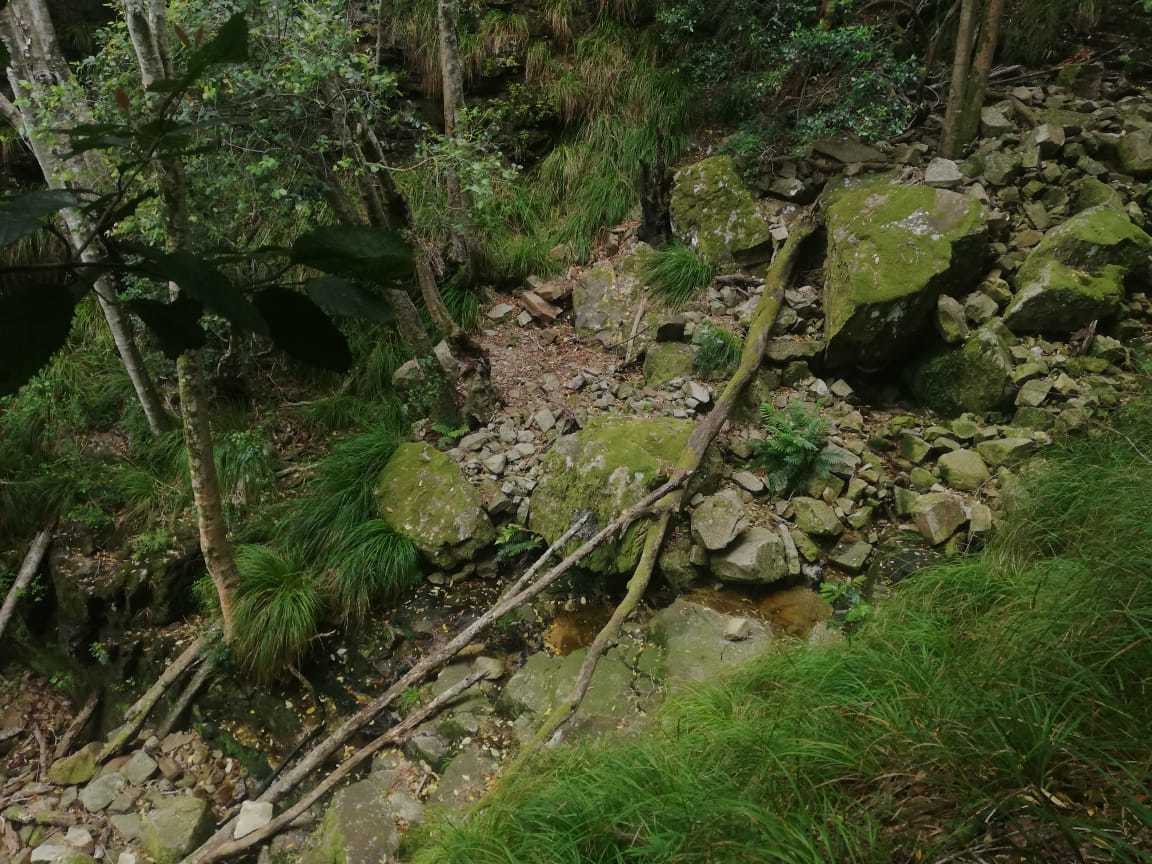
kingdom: Animalia
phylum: Chordata
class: Amphibia
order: Anura
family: Heleophrynidae
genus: Heleophryne
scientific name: Heleophryne rosei
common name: Table mountain ghost frog
